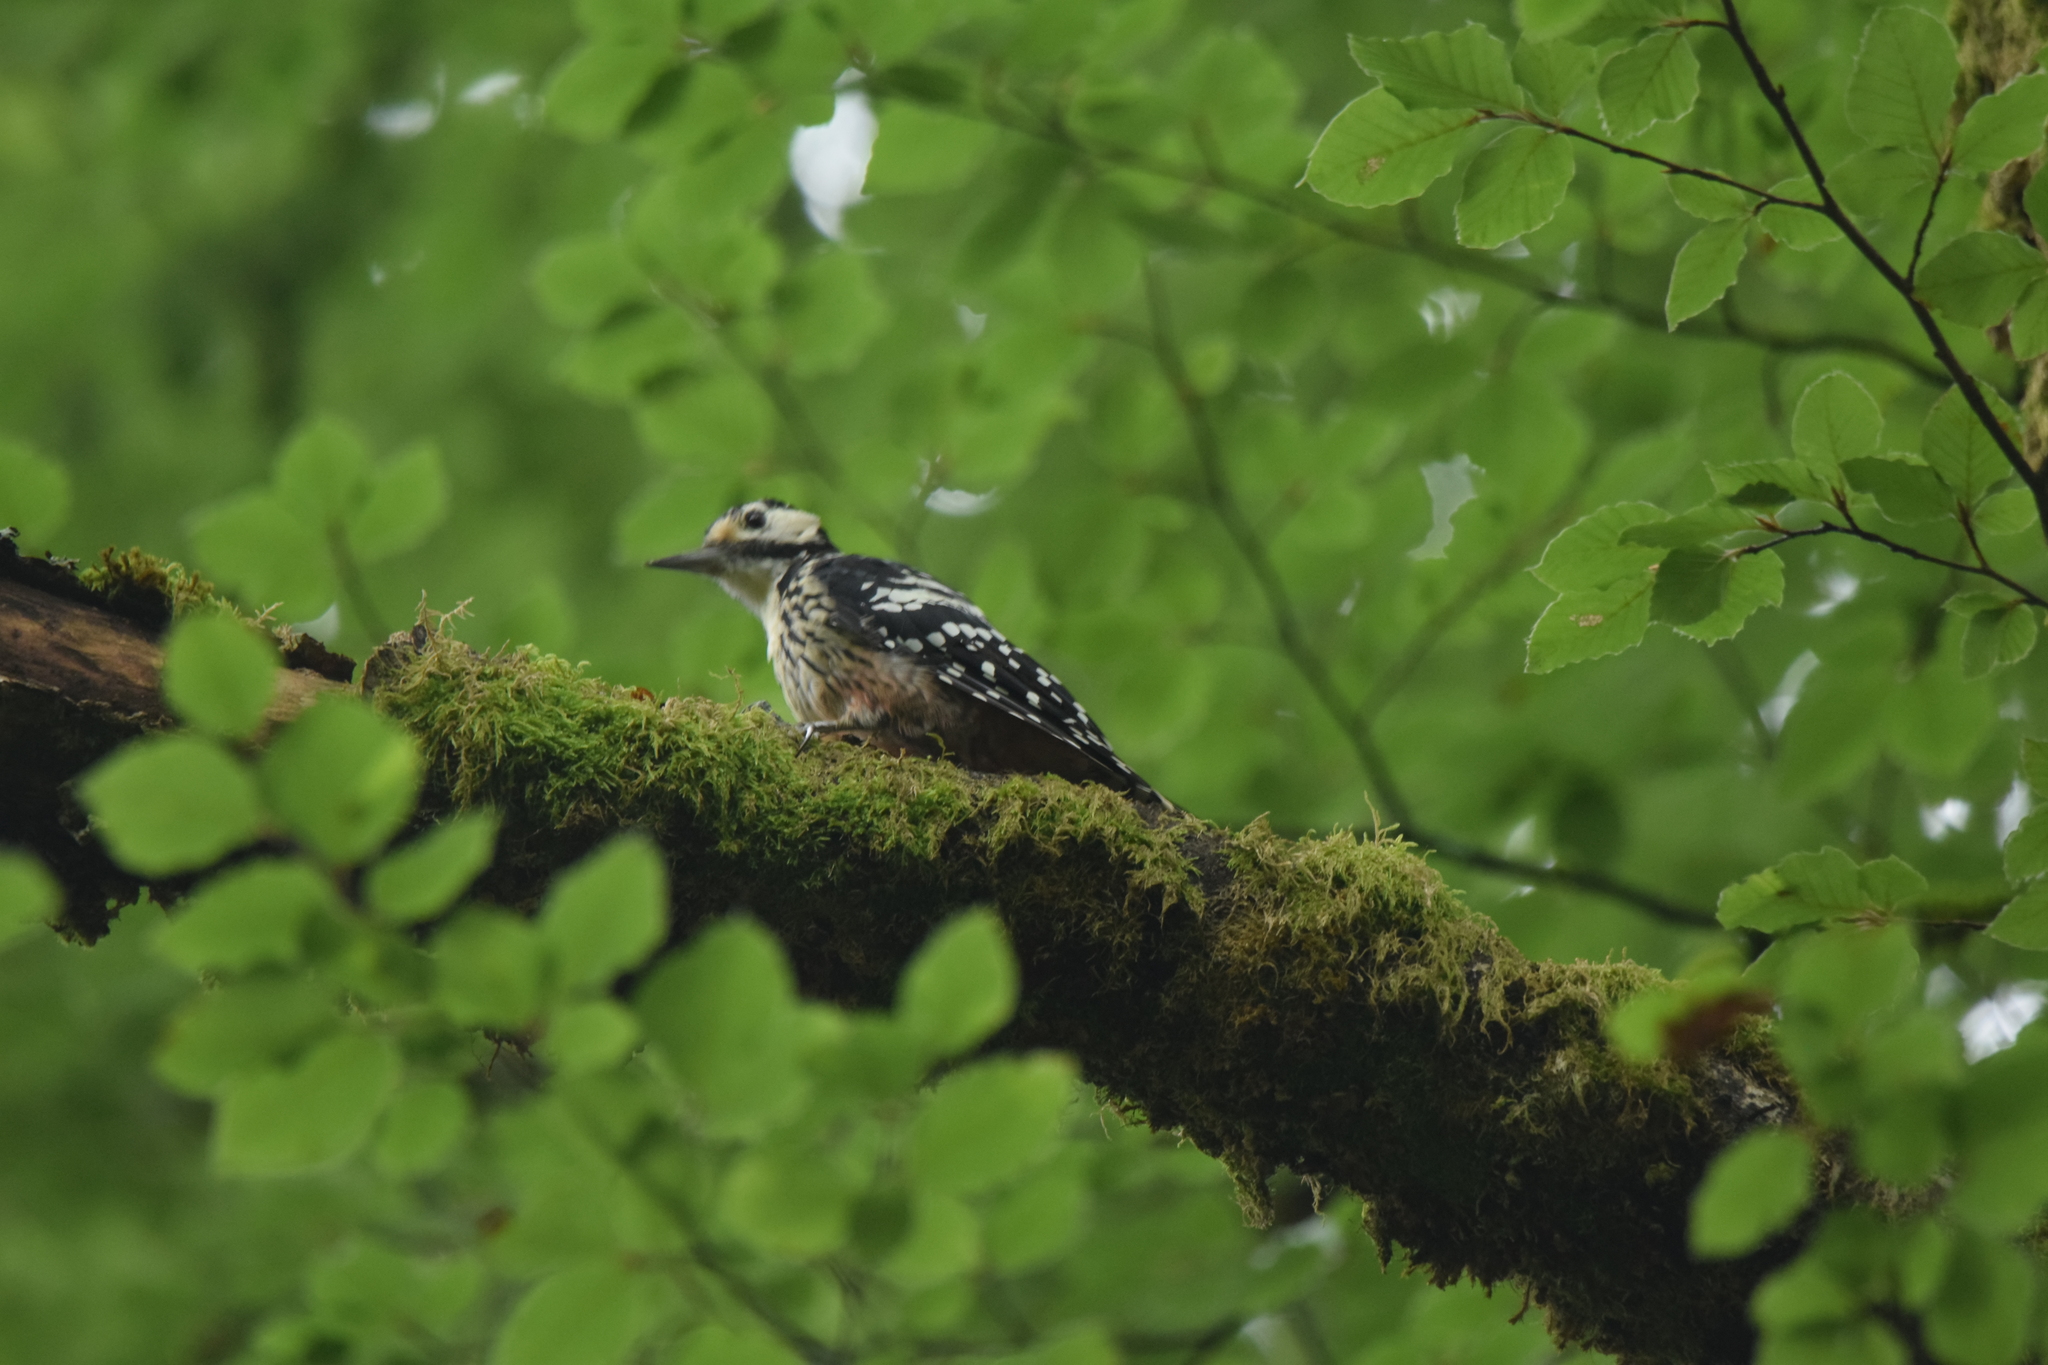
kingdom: Animalia
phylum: Chordata
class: Aves
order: Piciformes
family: Picidae
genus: Dendrocopos
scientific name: Dendrocopos leucotos
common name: White-backed woodpecker
